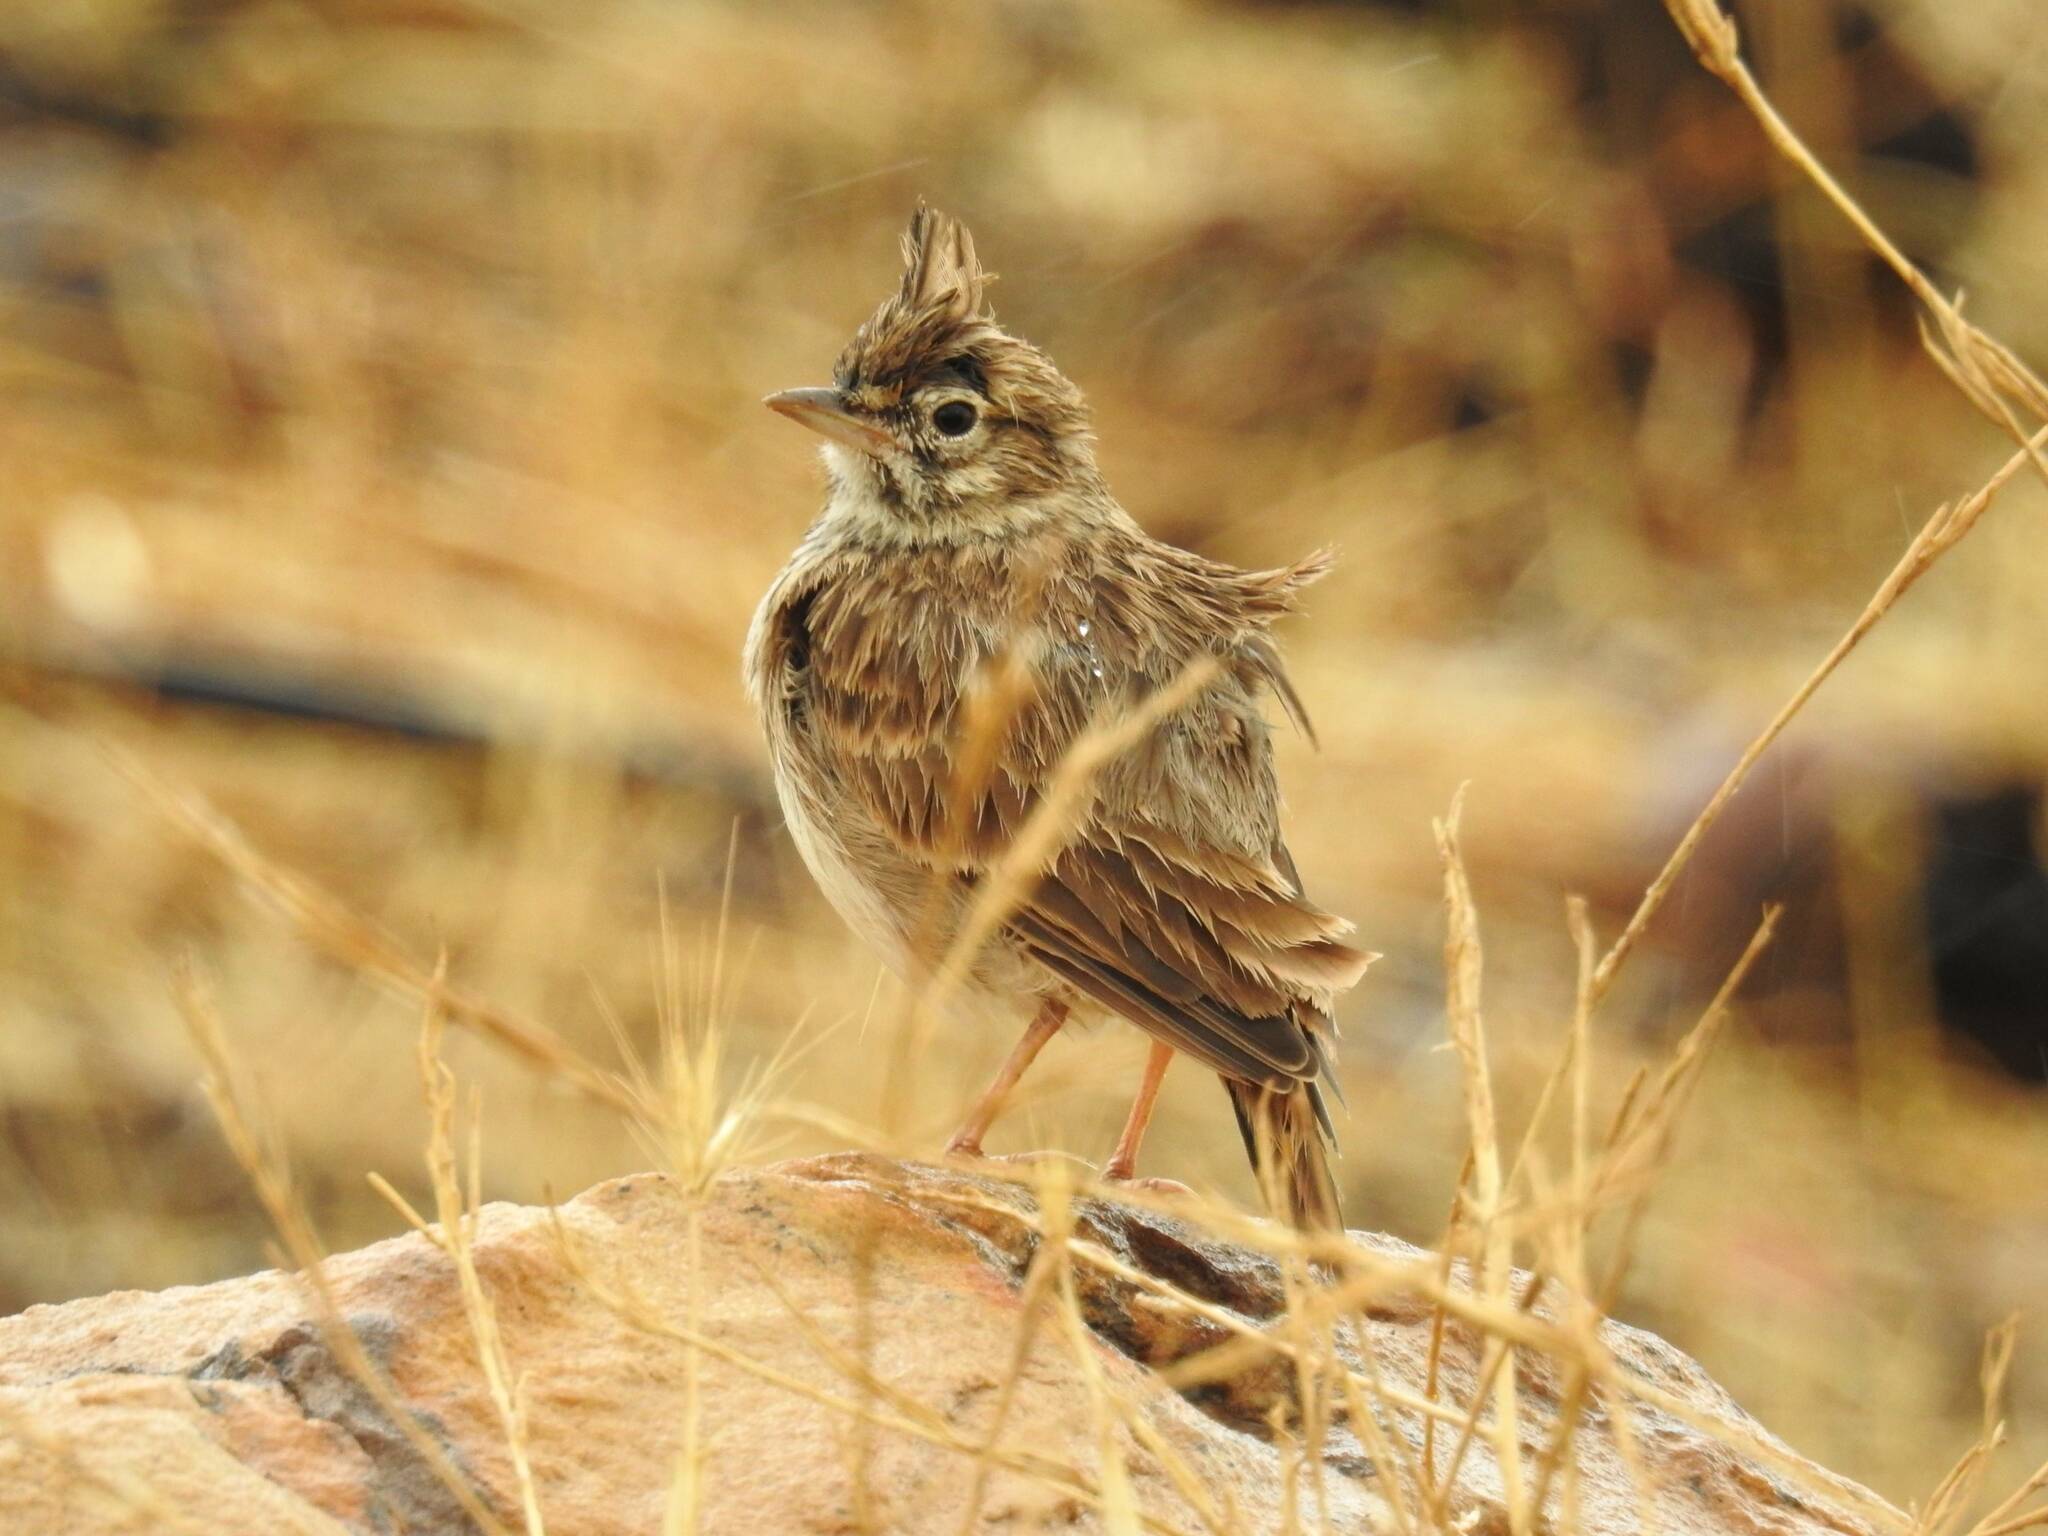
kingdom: Animalia
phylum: Chordata
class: Aves
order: Passeriformes
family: Alaudidae
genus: Galerida
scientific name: Galerida theklae
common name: Thekla lark
